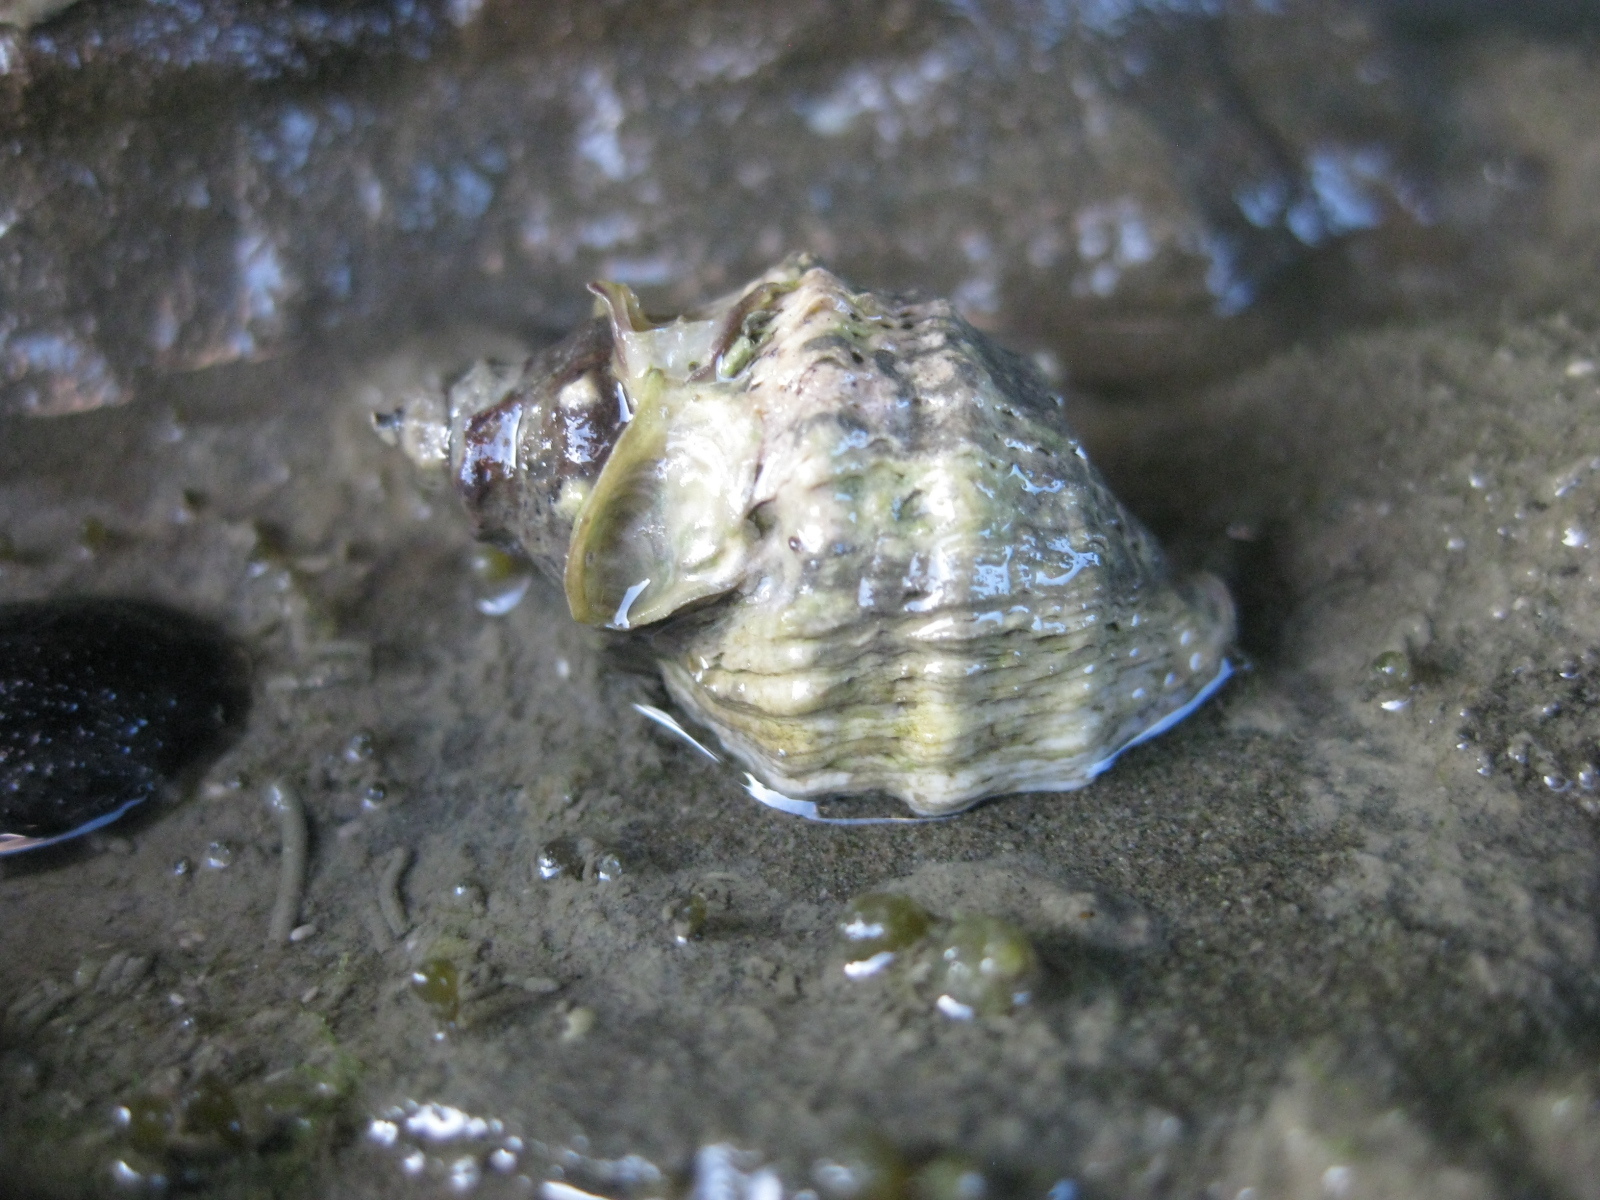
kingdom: Animalia
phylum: Mollusca
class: Gastropoda
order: Neogastropoda
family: Muricidae
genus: Haustrum
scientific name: Haustrum scobina
